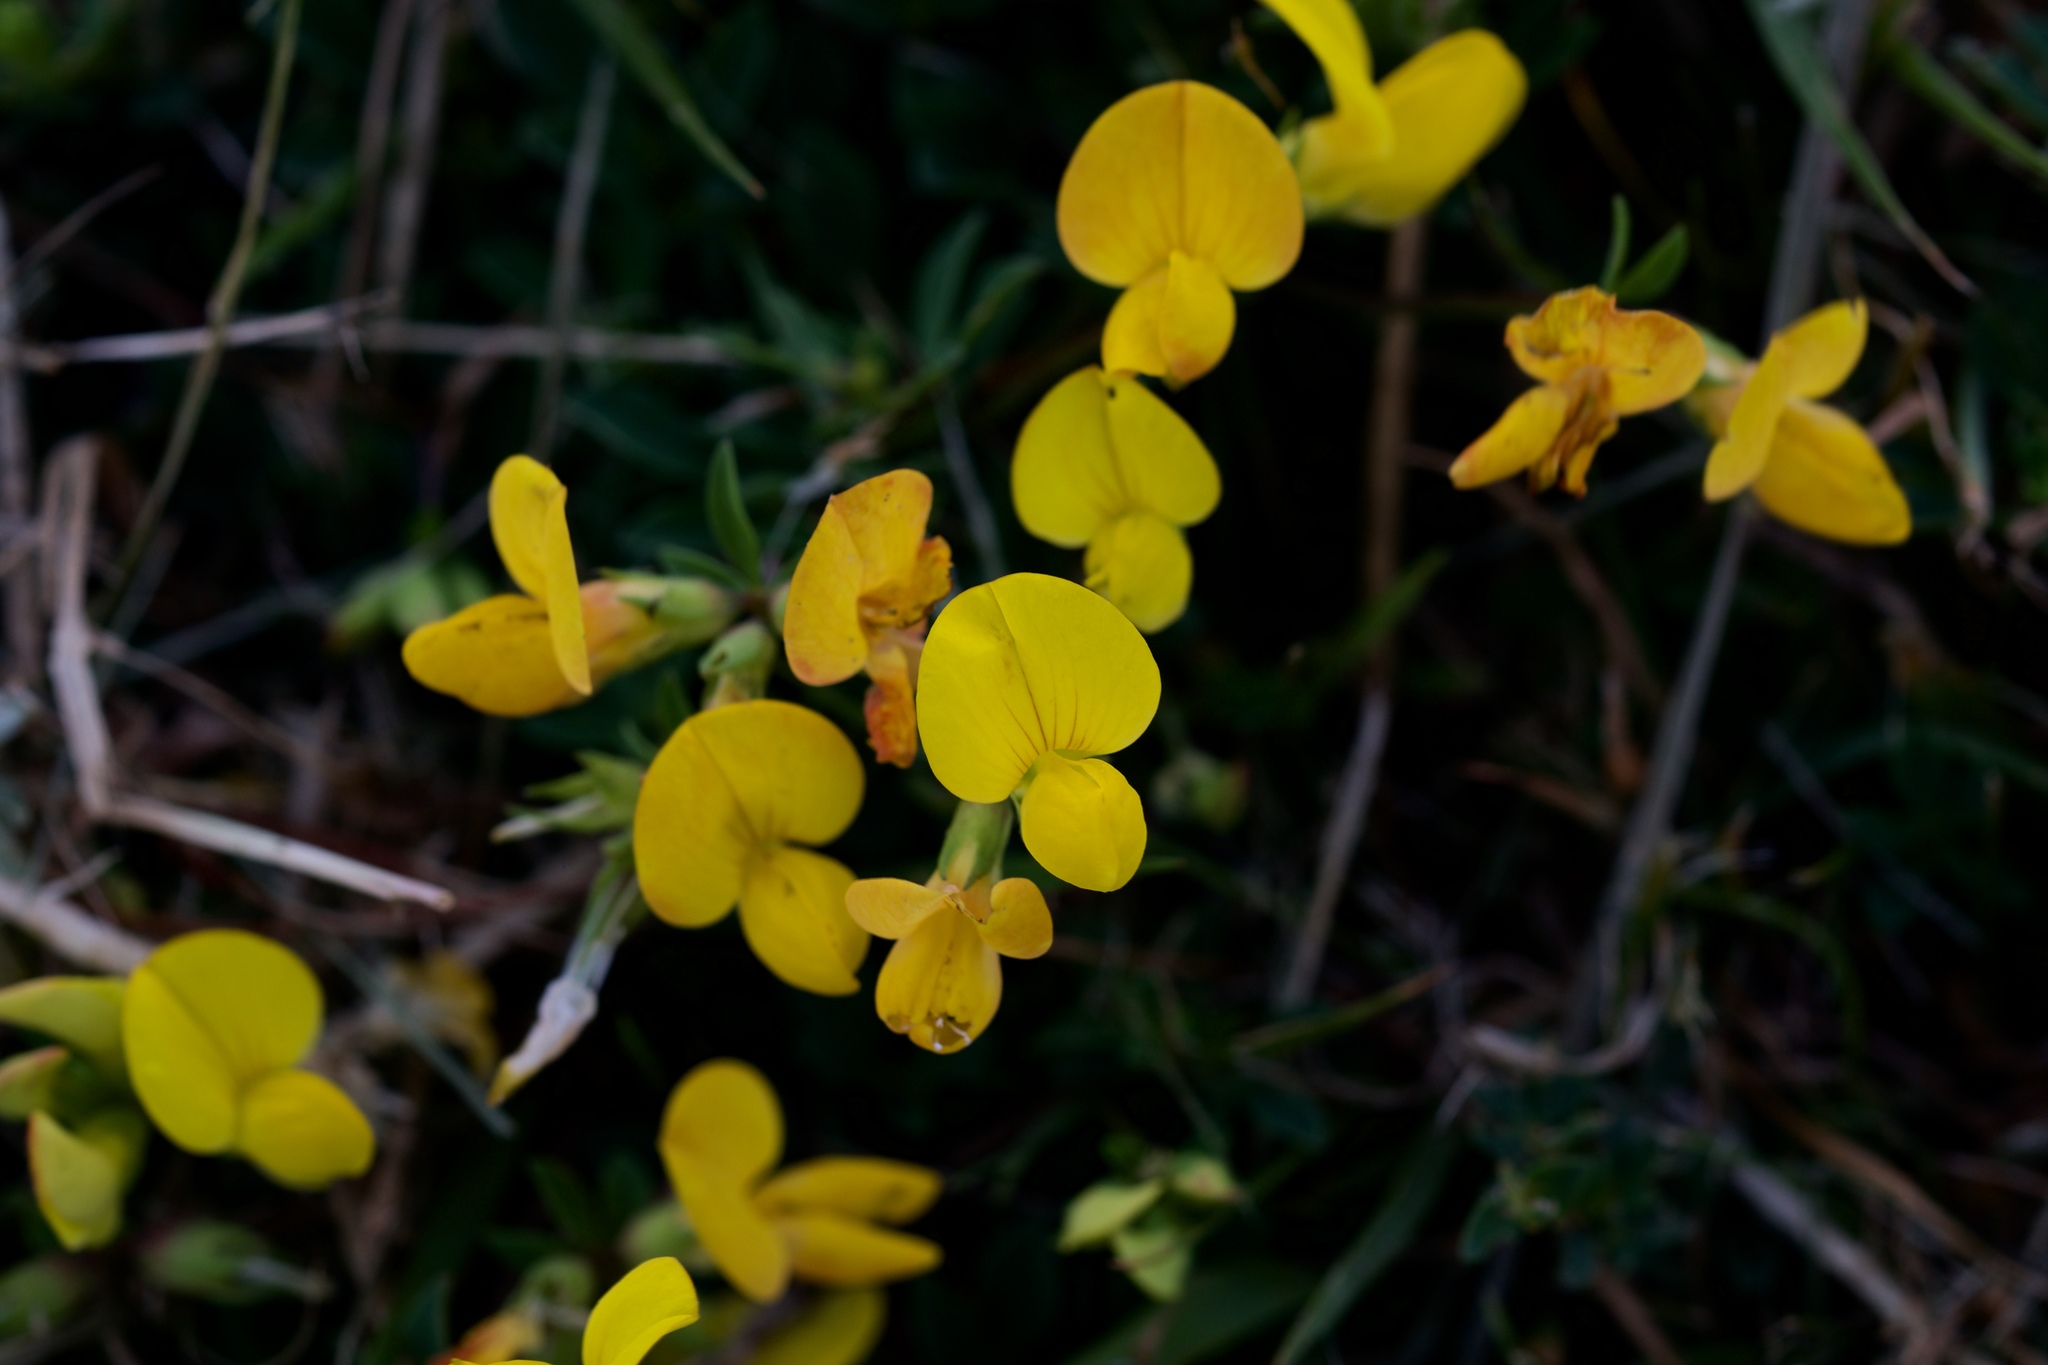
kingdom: Plantae
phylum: Tracheophyta
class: Magnoliopsida
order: Fabales
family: Fabaceae
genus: Lotus
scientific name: Lotus corniculatus
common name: Common bird's-foot-trefoil
